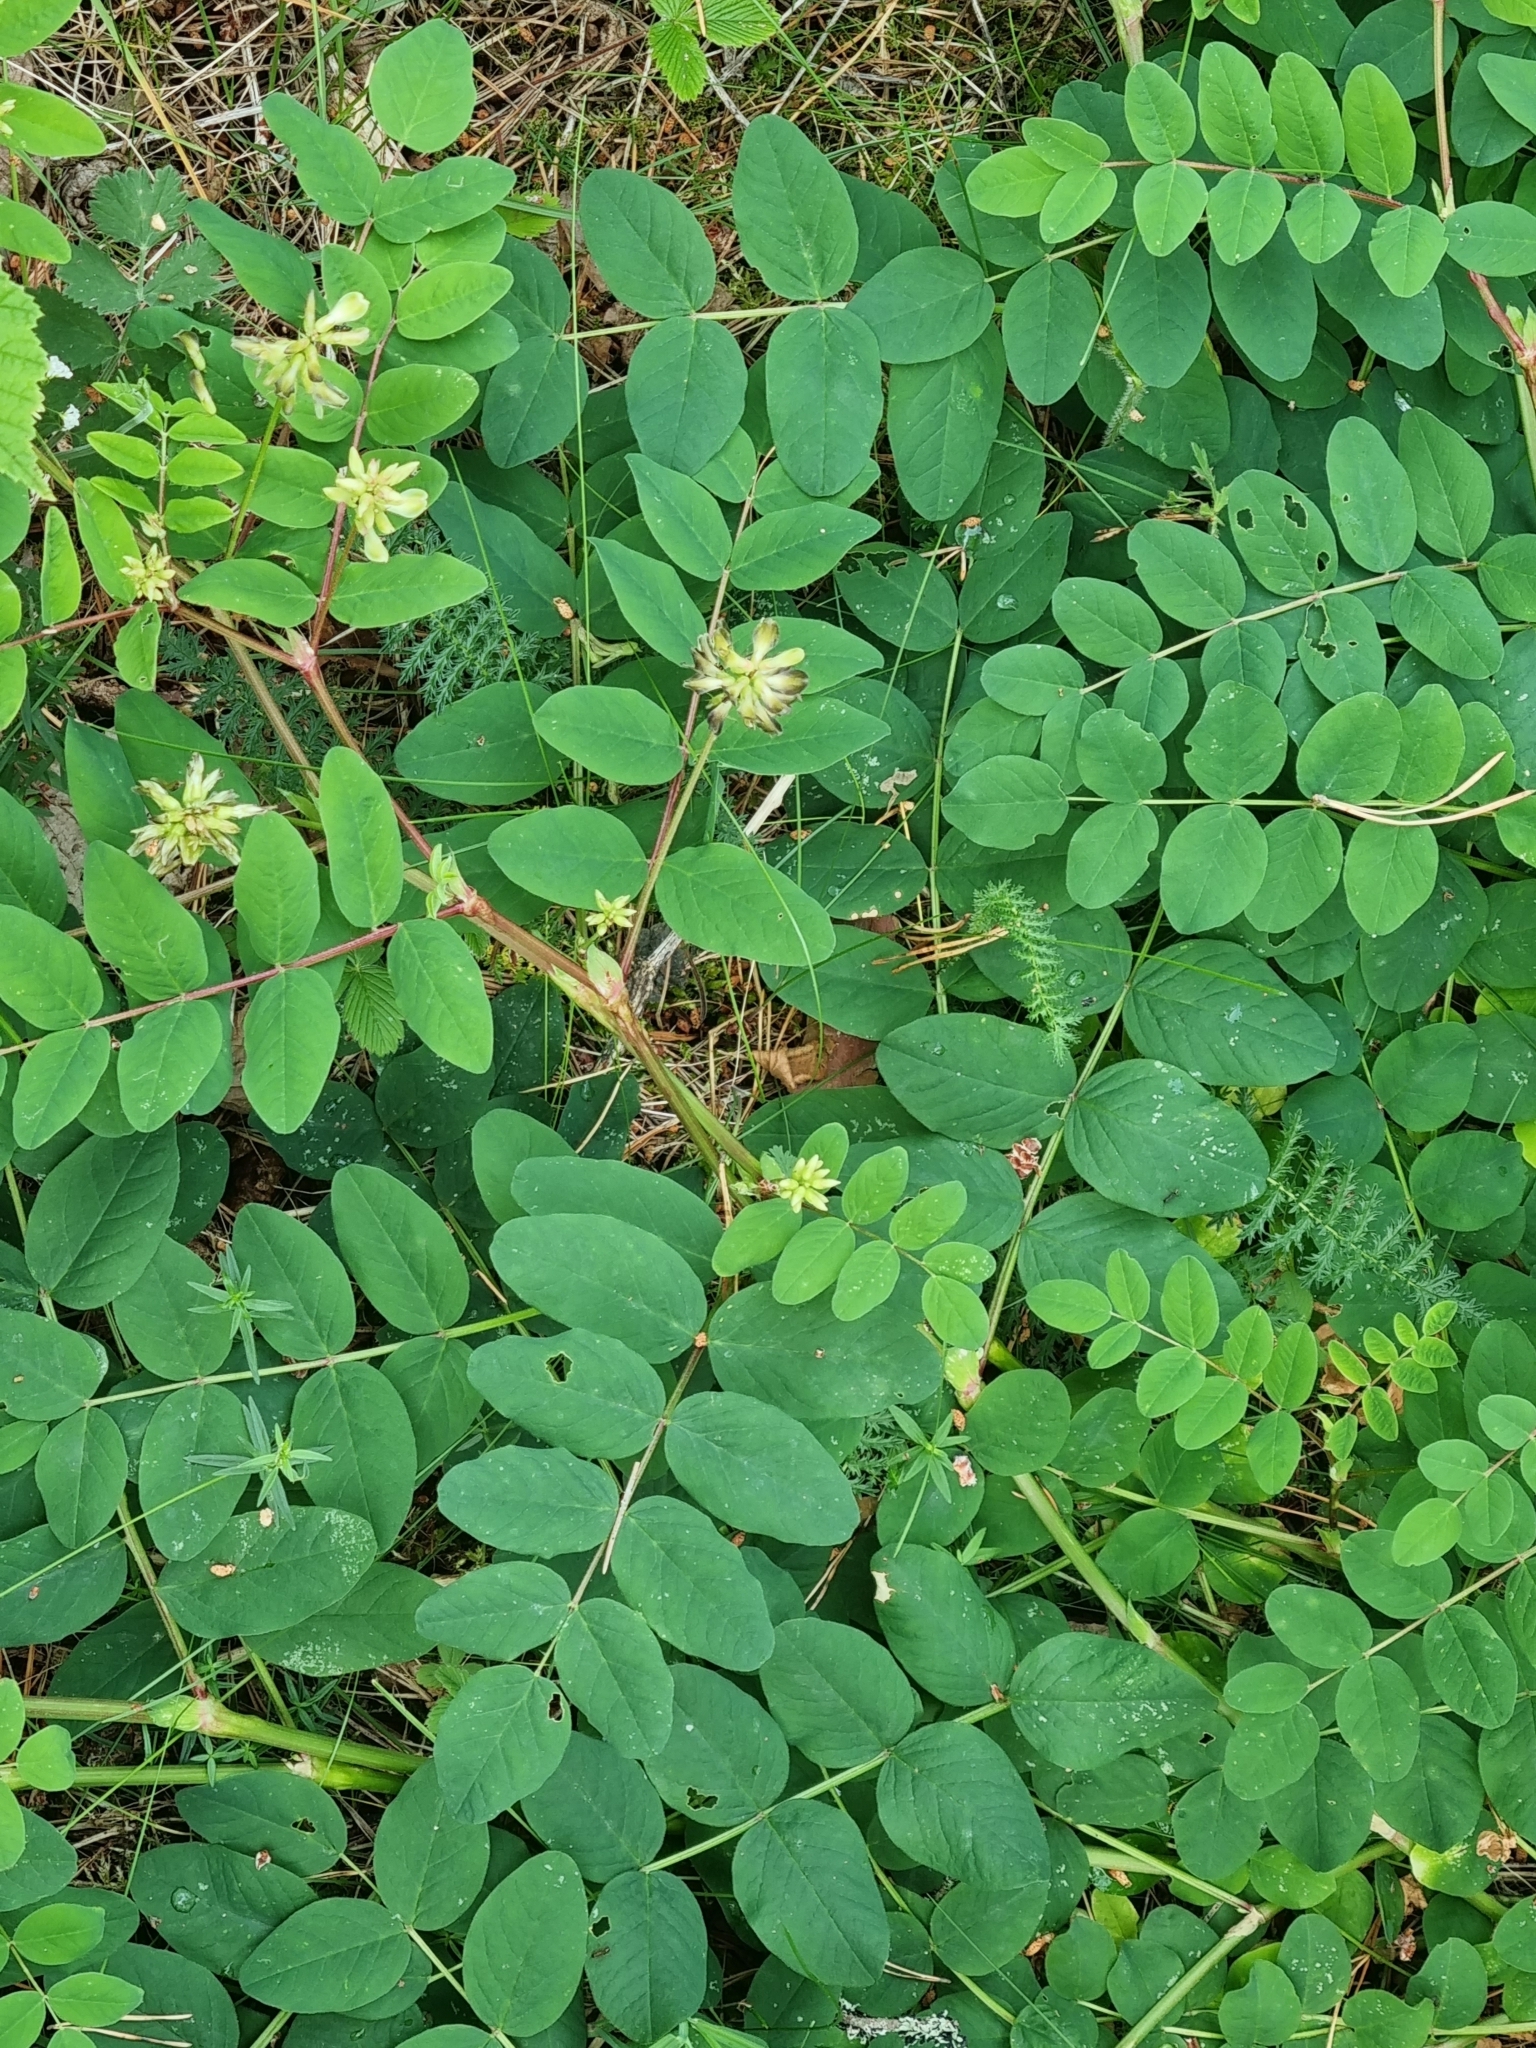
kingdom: Plantae
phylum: Tracheophyta
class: Magnoliopsida
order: Fabales
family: Fabaceae
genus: Astragalus
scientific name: Astragalus glycyphyllos
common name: Wild liquorice
